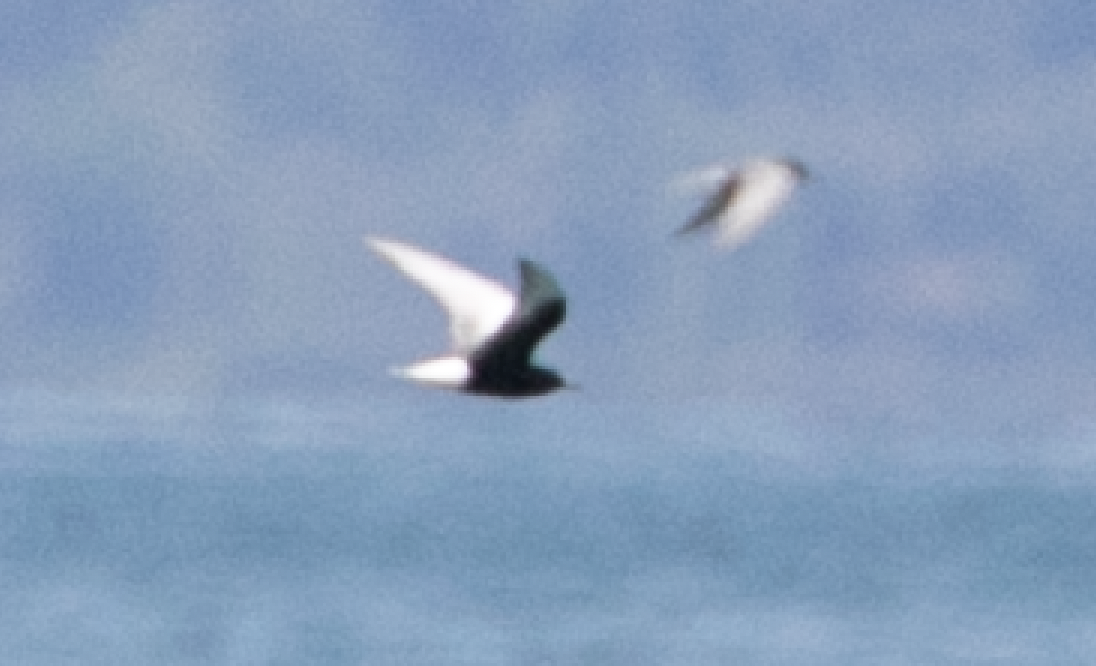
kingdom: Animalia
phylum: Chordata
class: Aves
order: Charadriiformes
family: Laridae
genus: Chlidonias
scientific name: Chlidonias leucopterus
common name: White-winged tern
